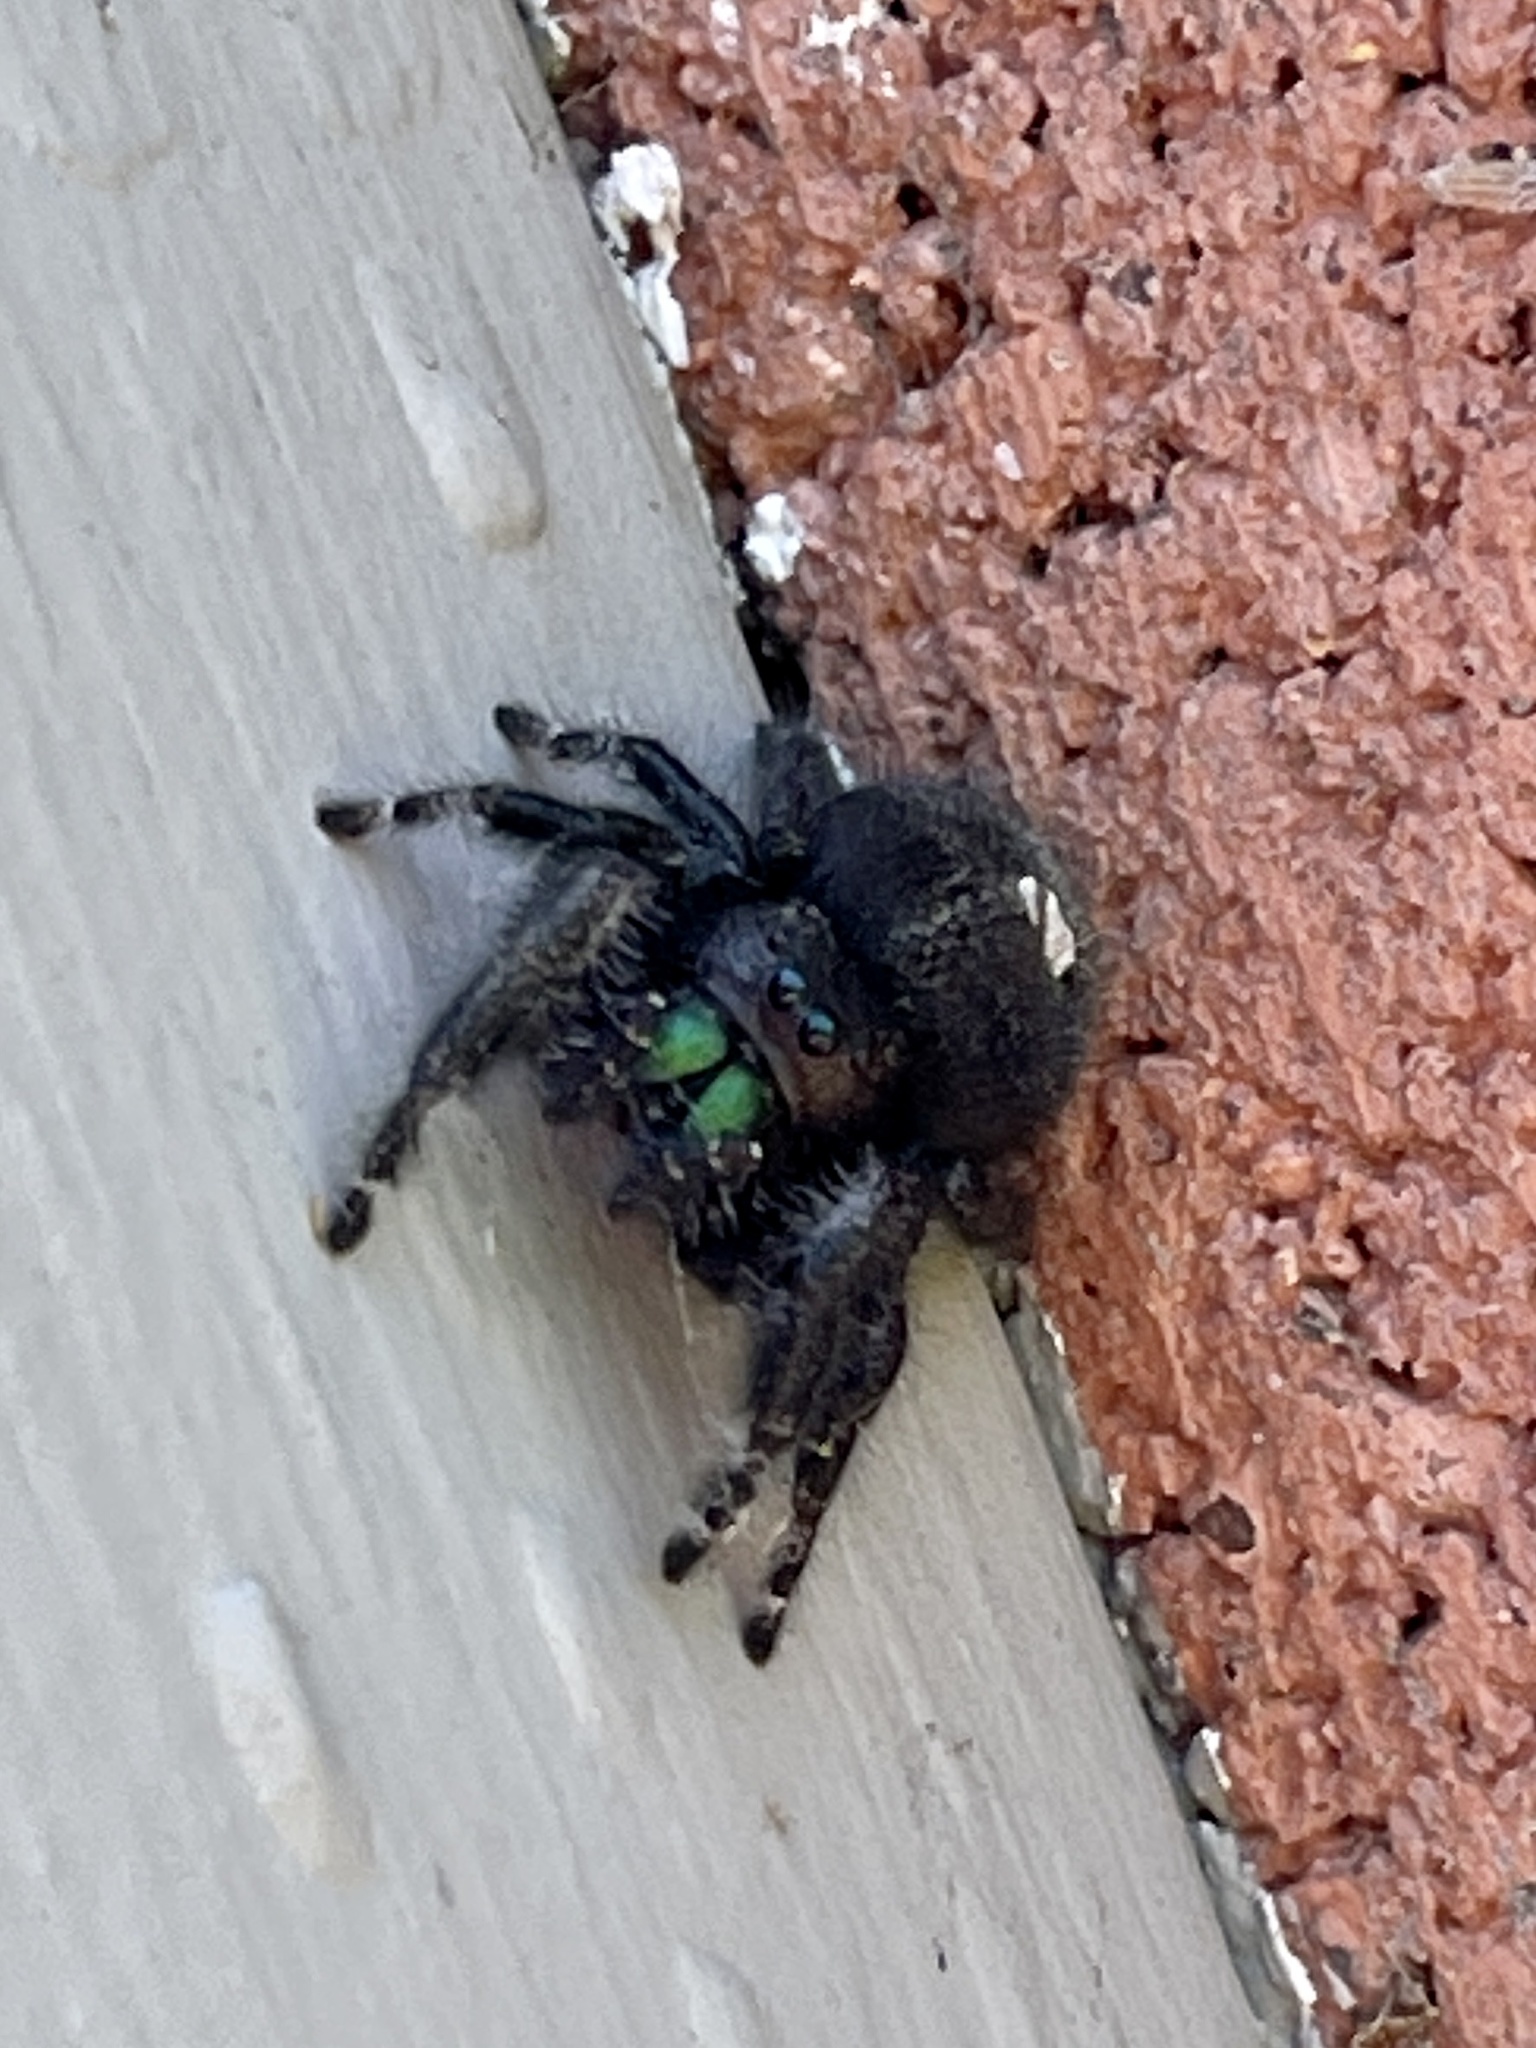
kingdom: Animalia
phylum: Arthropoda
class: Arachnida
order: Araneae
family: Salticidae
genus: Phidippus
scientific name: Phidippus audax
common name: Bold jumper
